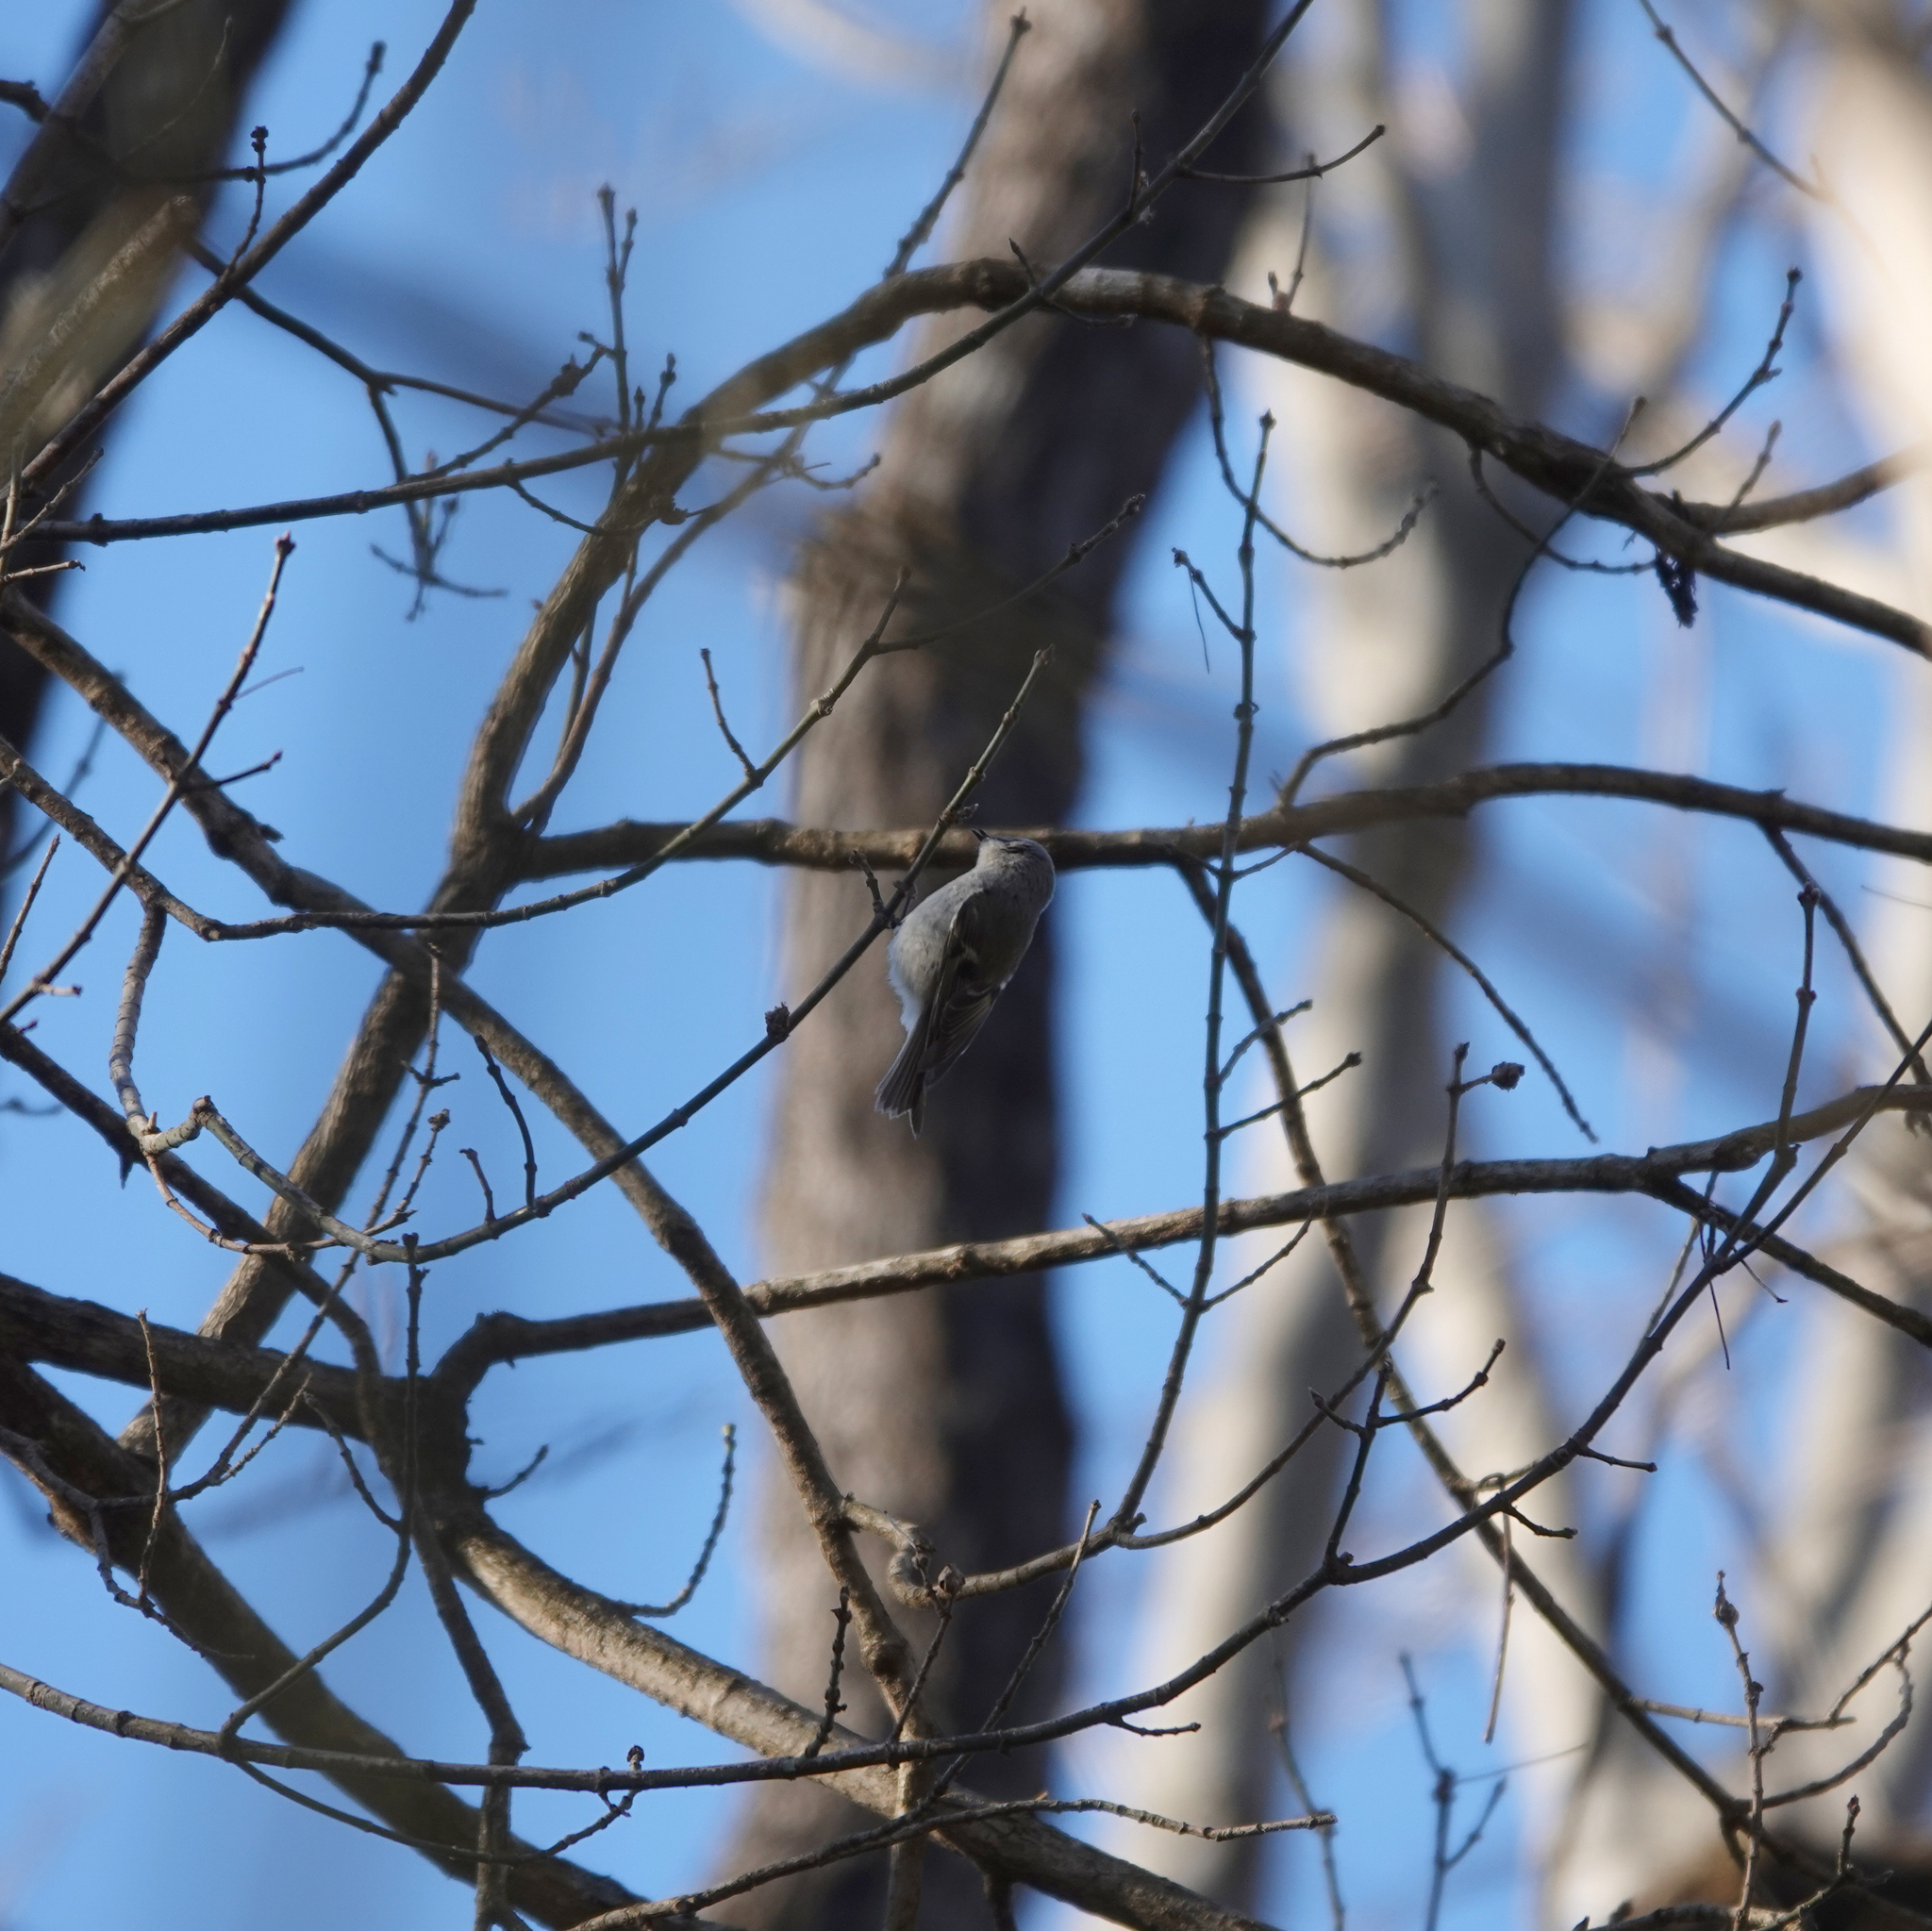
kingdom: Animalia
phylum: Chordata
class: Aves
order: Passeriformes
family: Regulidae
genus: Regulus
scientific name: Regulus satrapa
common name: Golden-crowned kinglet
